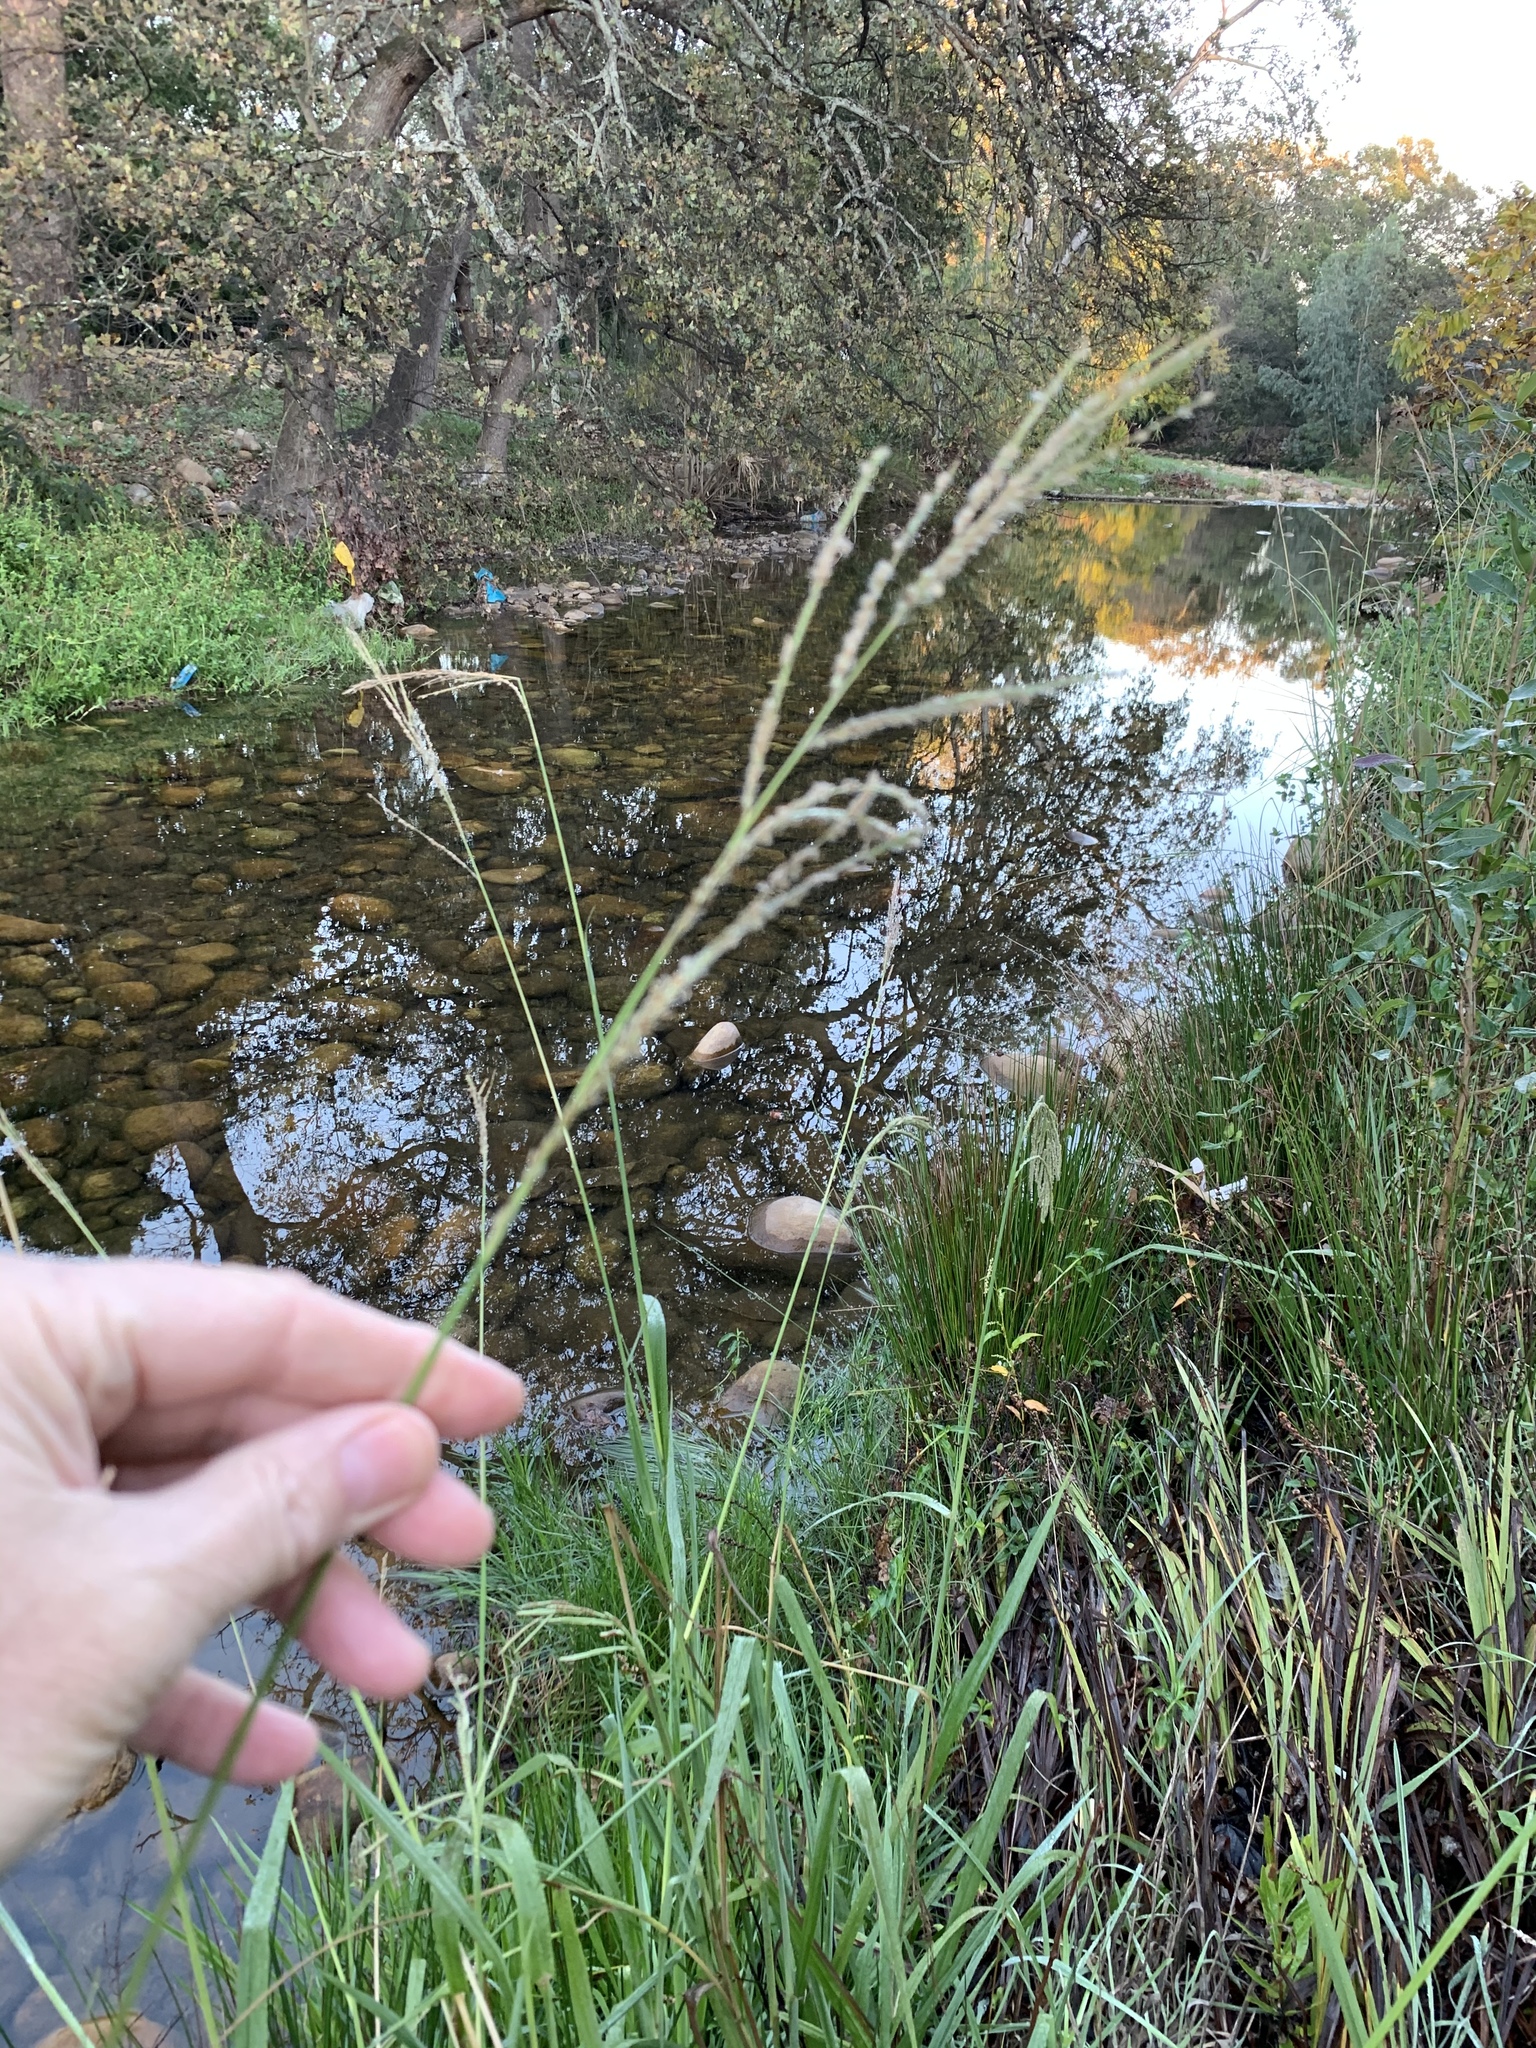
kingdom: Plantae
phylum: Tracheophyta
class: Liliopsida
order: Poales
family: Poaceae
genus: Paspalum
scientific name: Paspalum urvillei
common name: Vasey's grass
